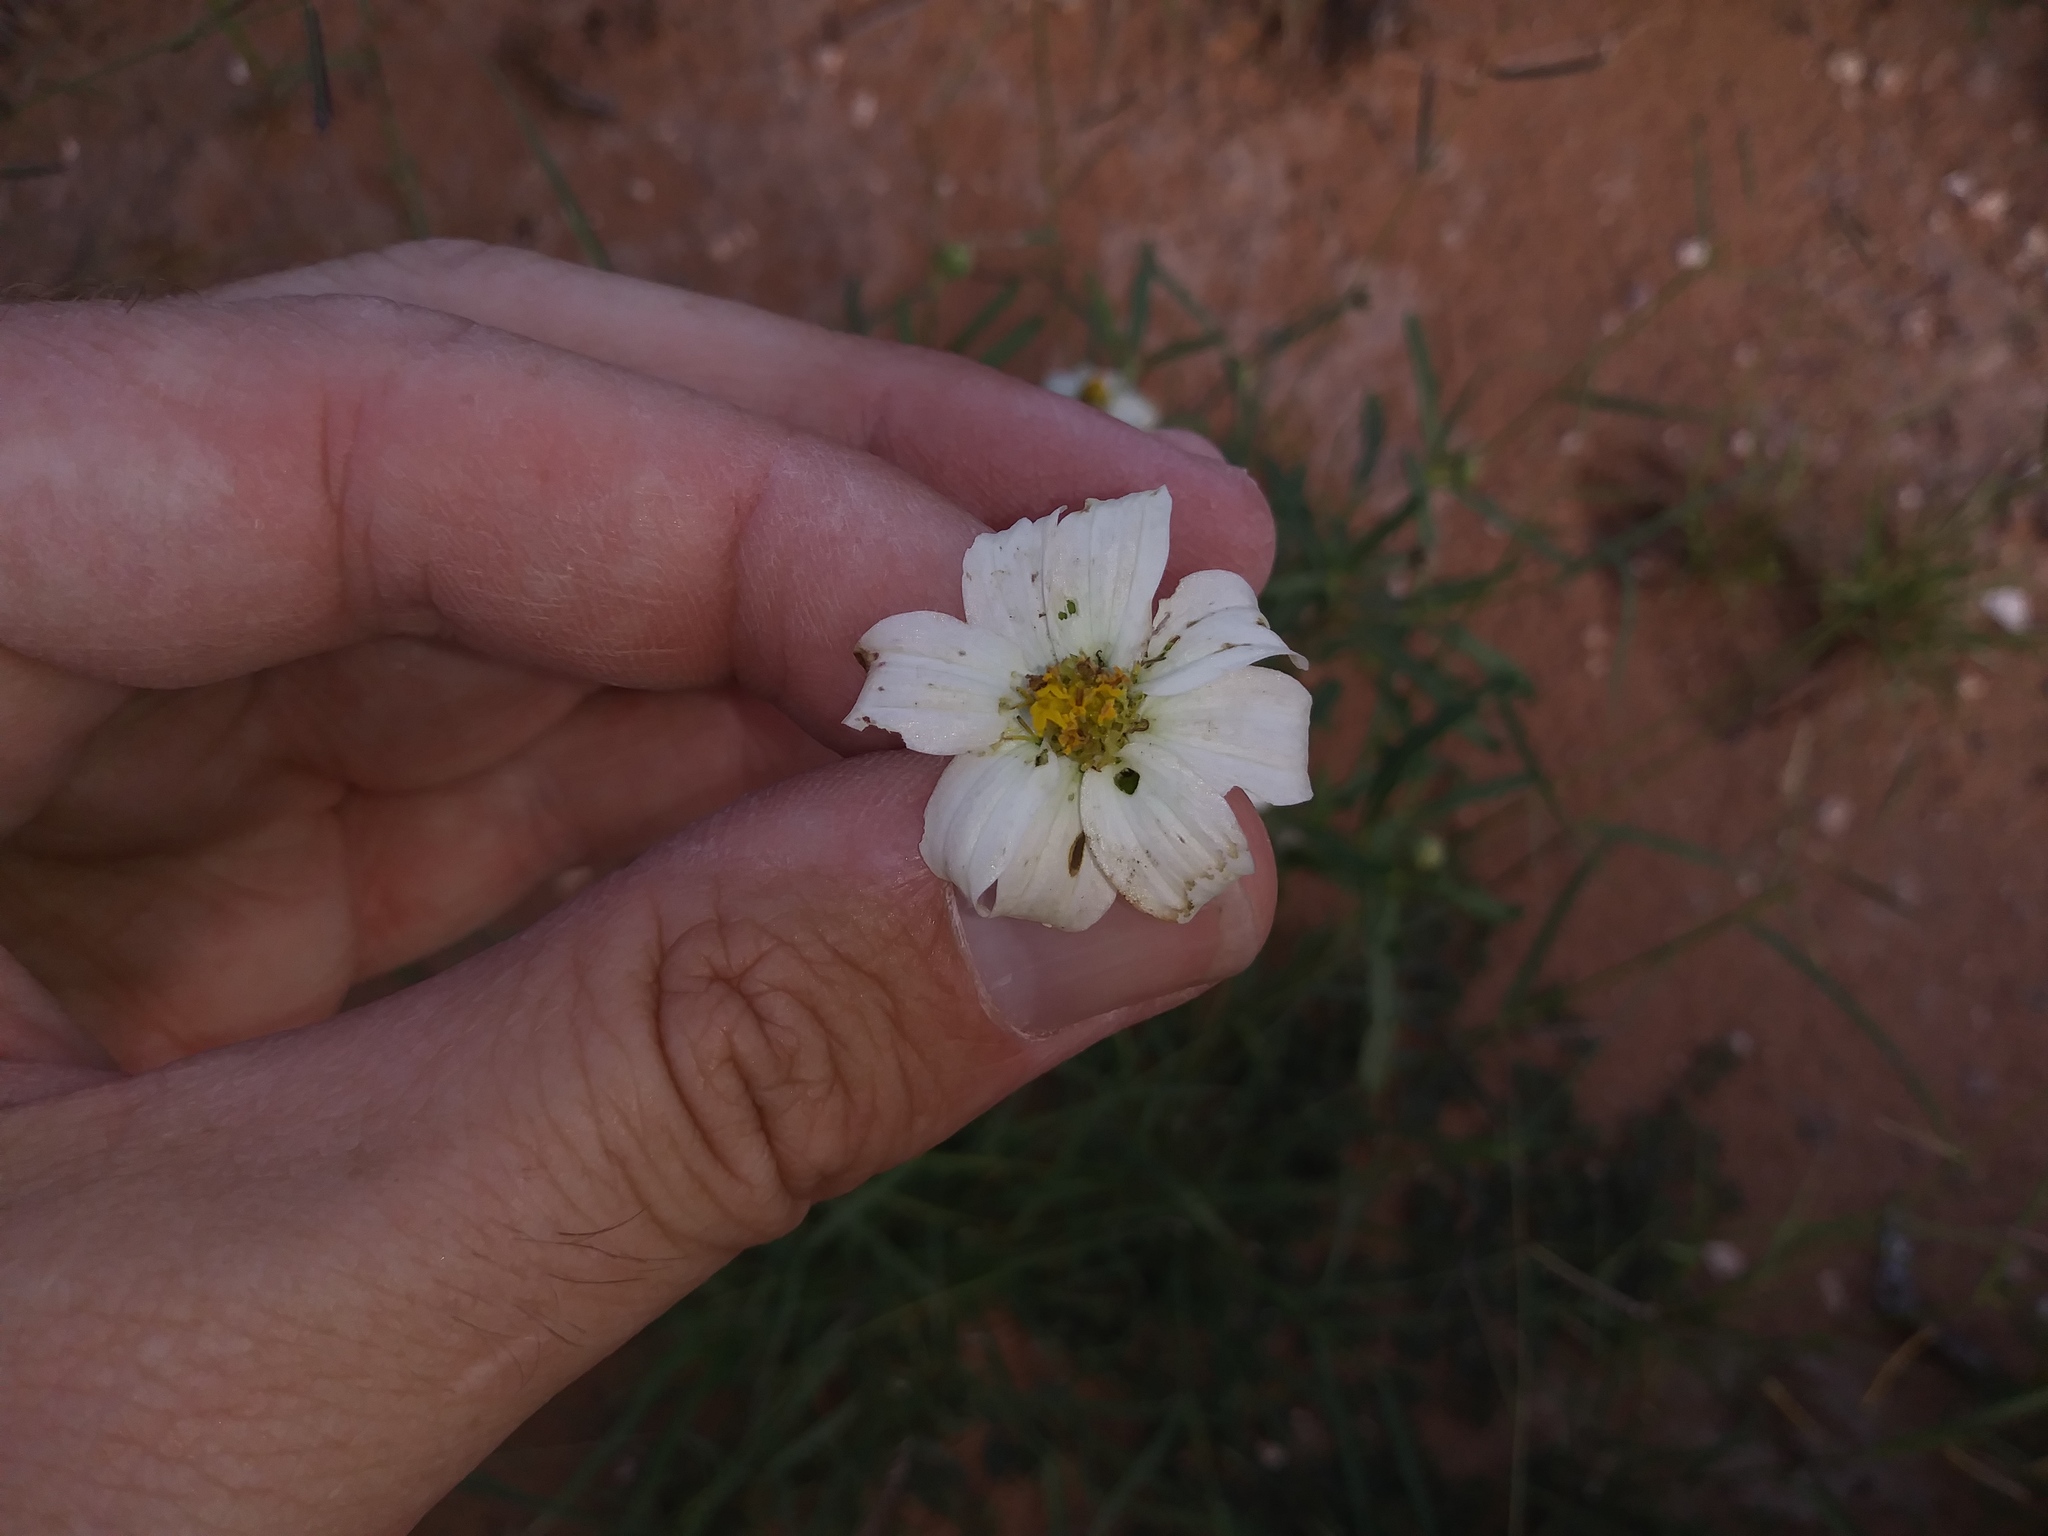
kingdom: Plantae
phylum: Tracheophyta
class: Magnoliopsida
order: Asterales
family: Asteraceae
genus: Melampodium
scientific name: Melampodium leucanthum
